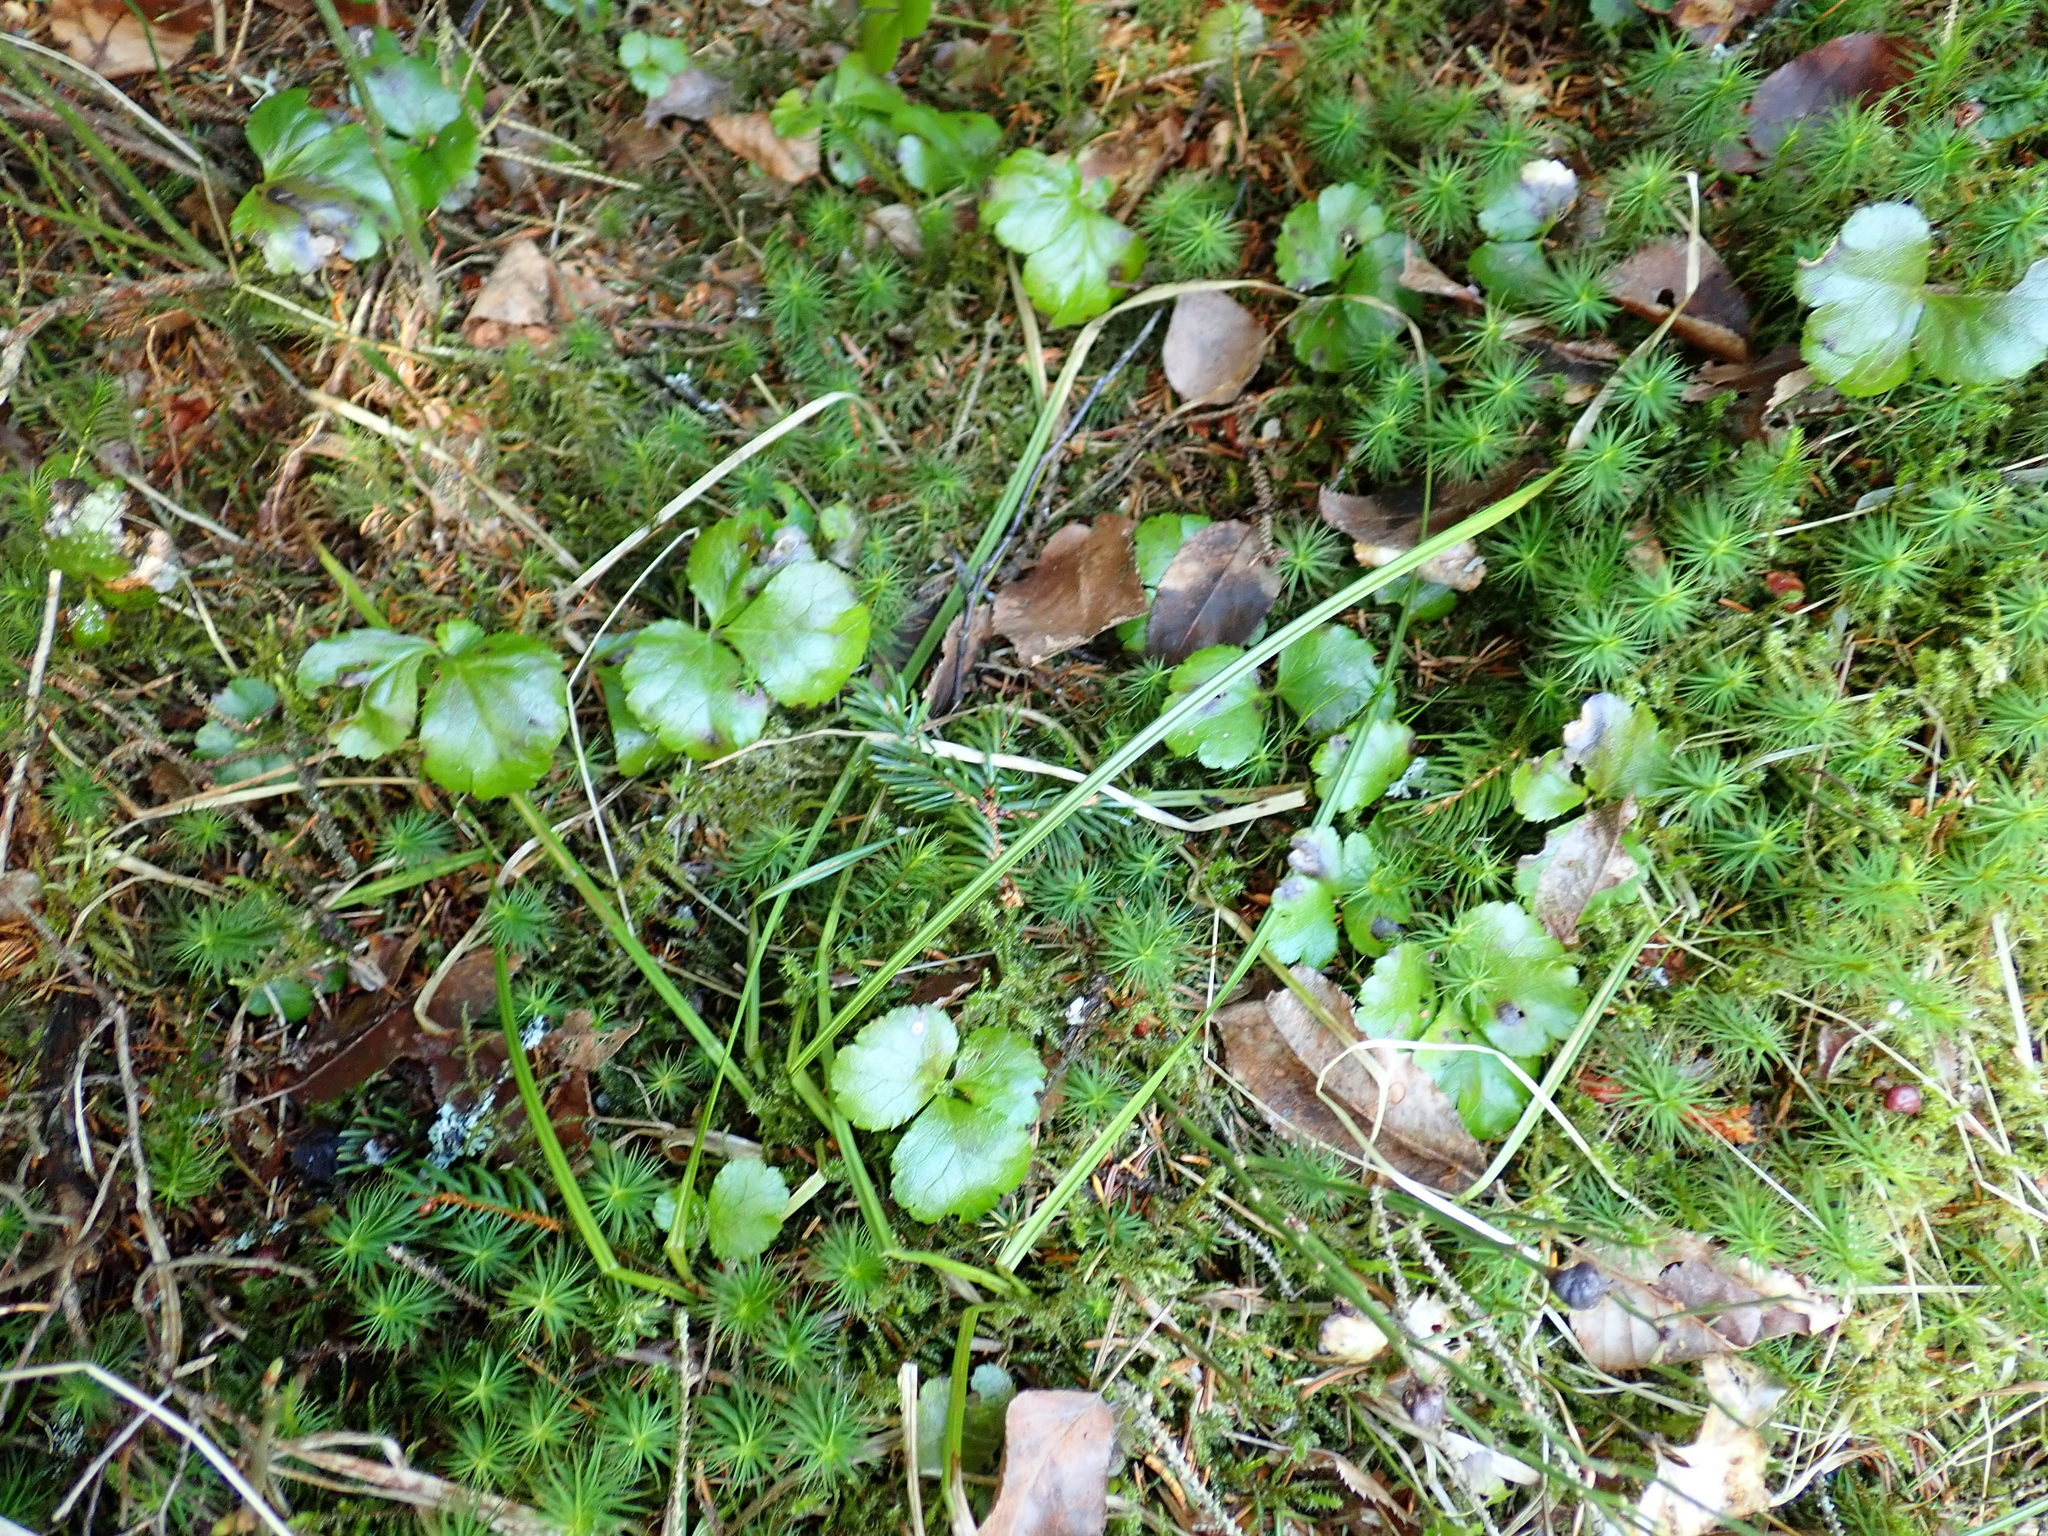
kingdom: Plantae
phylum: Tracheophyta
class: Magnoliopsida
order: Ranunculales
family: Ranunculaceae
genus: Coptis
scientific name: Coptis trifolia
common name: Canker-root
